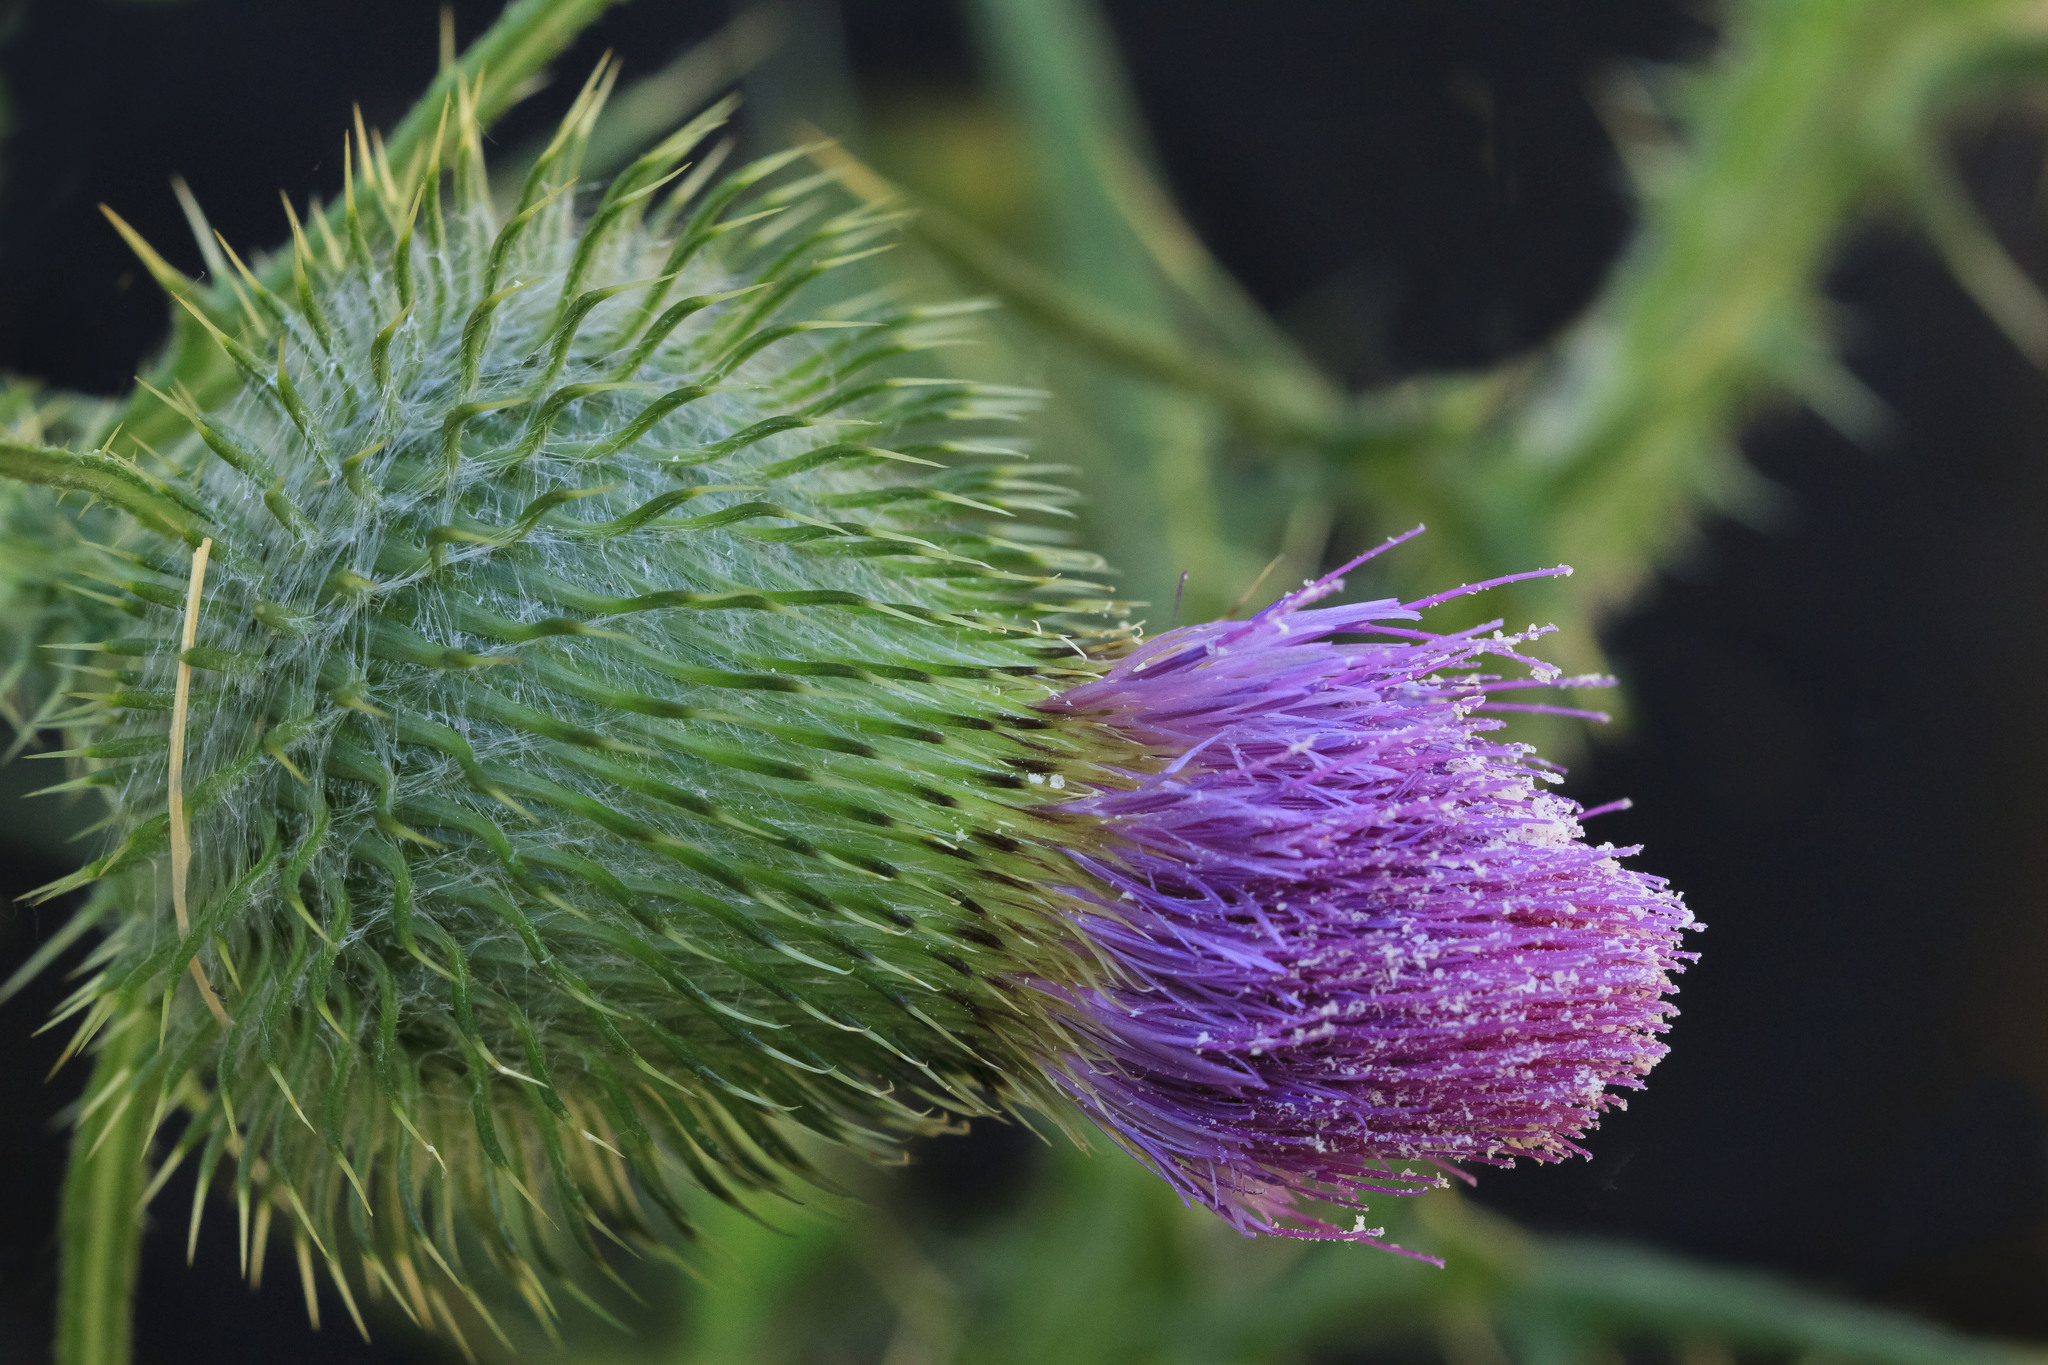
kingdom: Plantae
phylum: Tracheophyta
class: Magnoliopsida
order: Asterales
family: Asteraceae
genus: Cirsium
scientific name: Cirsium vulgare
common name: Bull thistle
